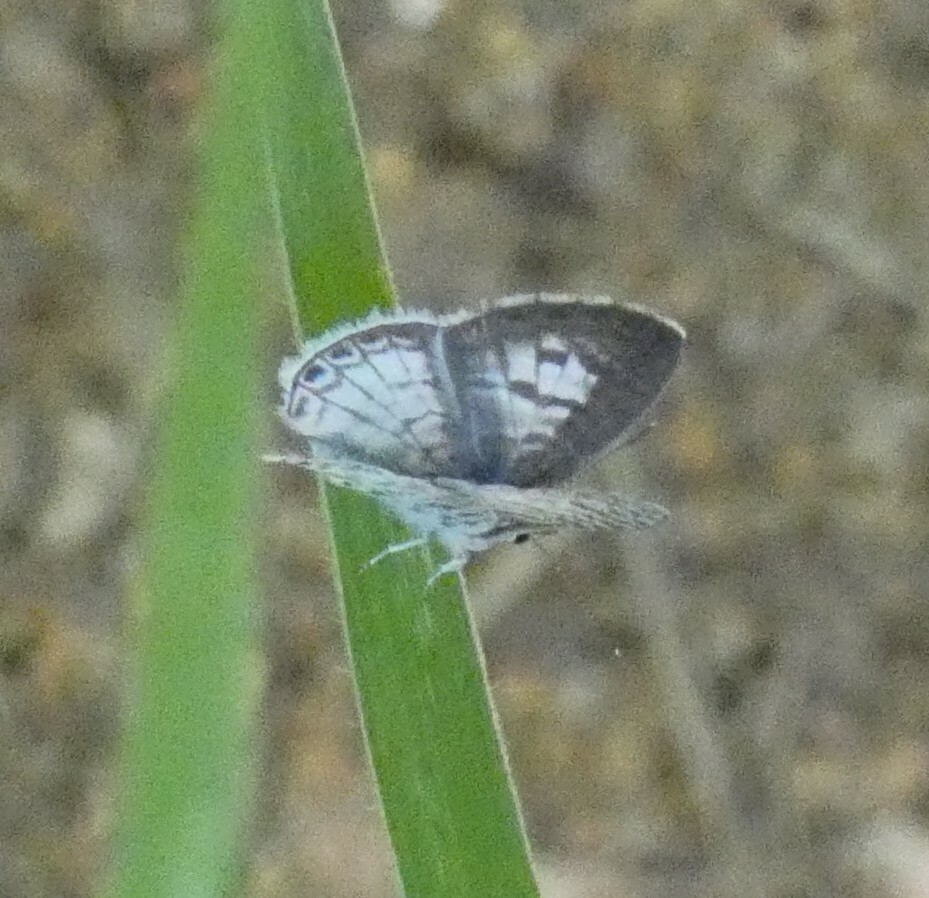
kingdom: Animalia
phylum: Arthropoda
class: Insecta
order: Lepidoptera
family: Lycaenidae
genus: Leptotes
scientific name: Leptotes cassius
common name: Cassius blue
